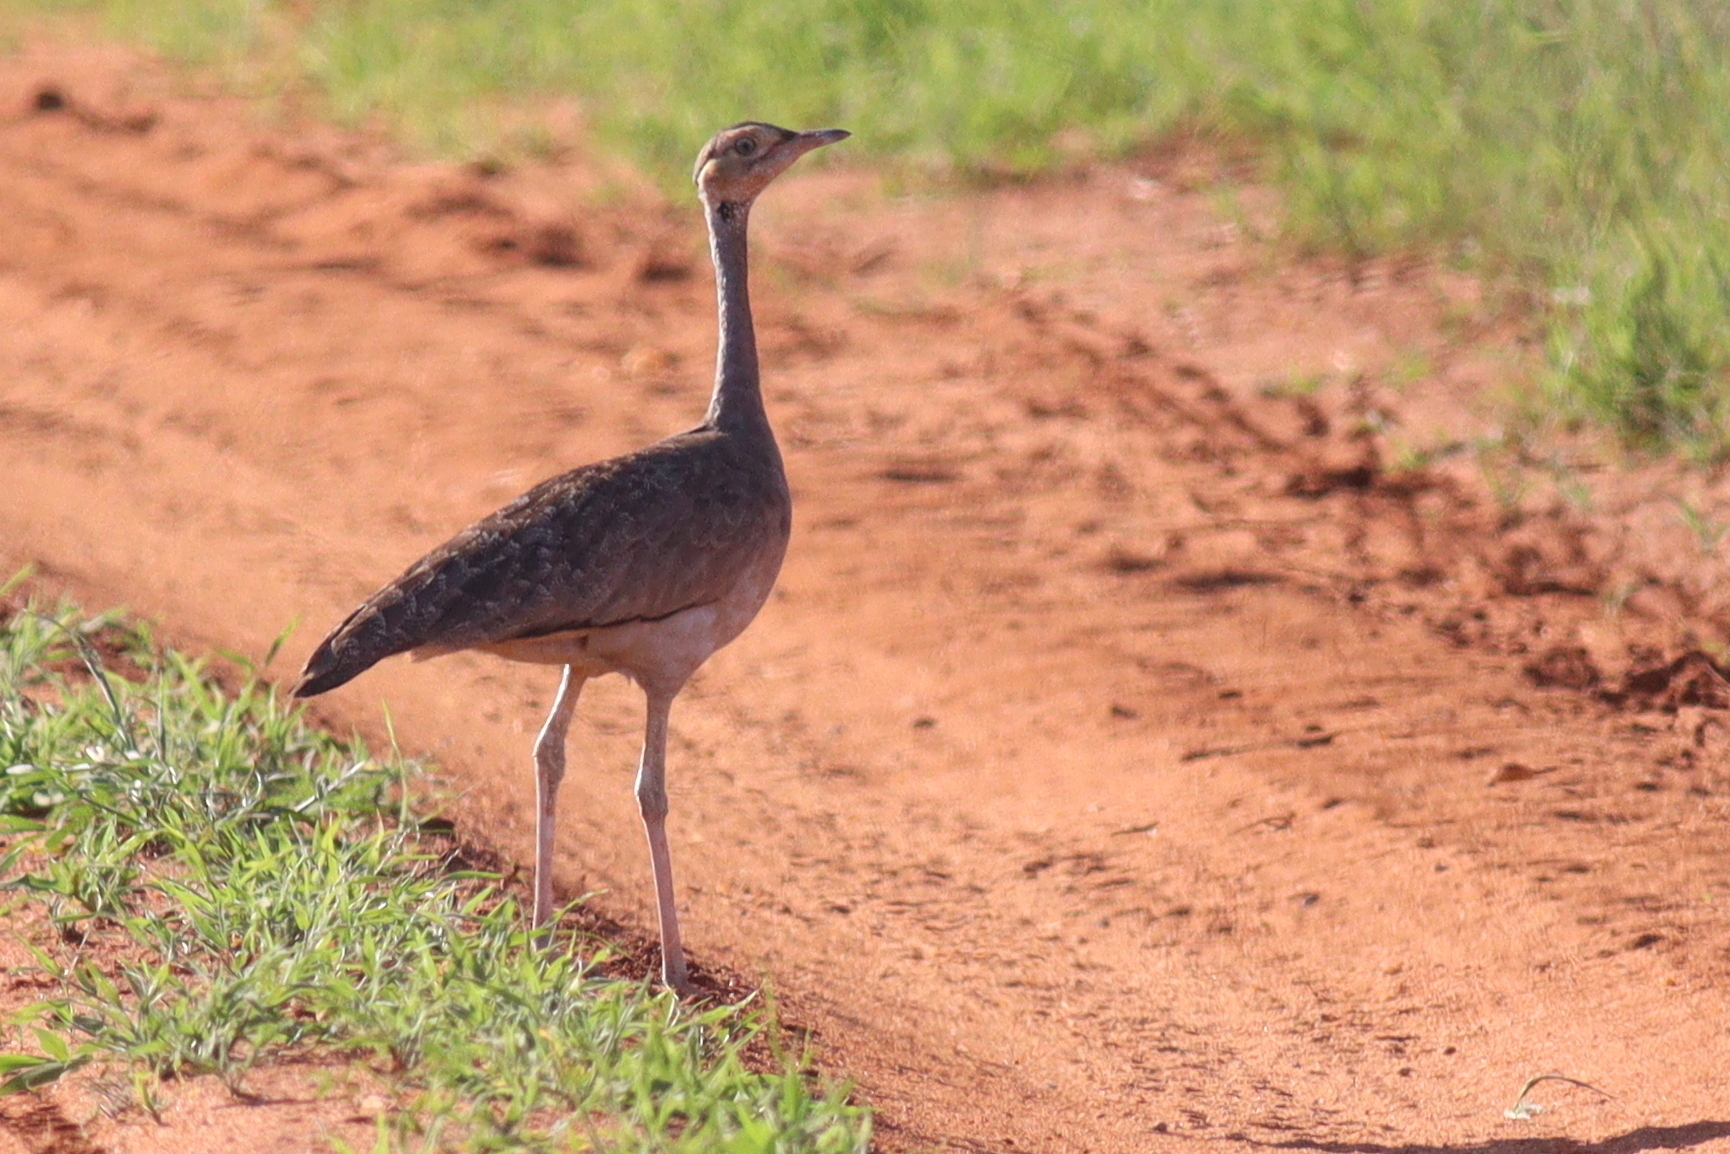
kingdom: Animalia
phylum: Chordata
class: Aves
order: Otidiformes
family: Otididae
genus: Eupodotis
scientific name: Eupodotis senegalensis
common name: White-bellied bustard
